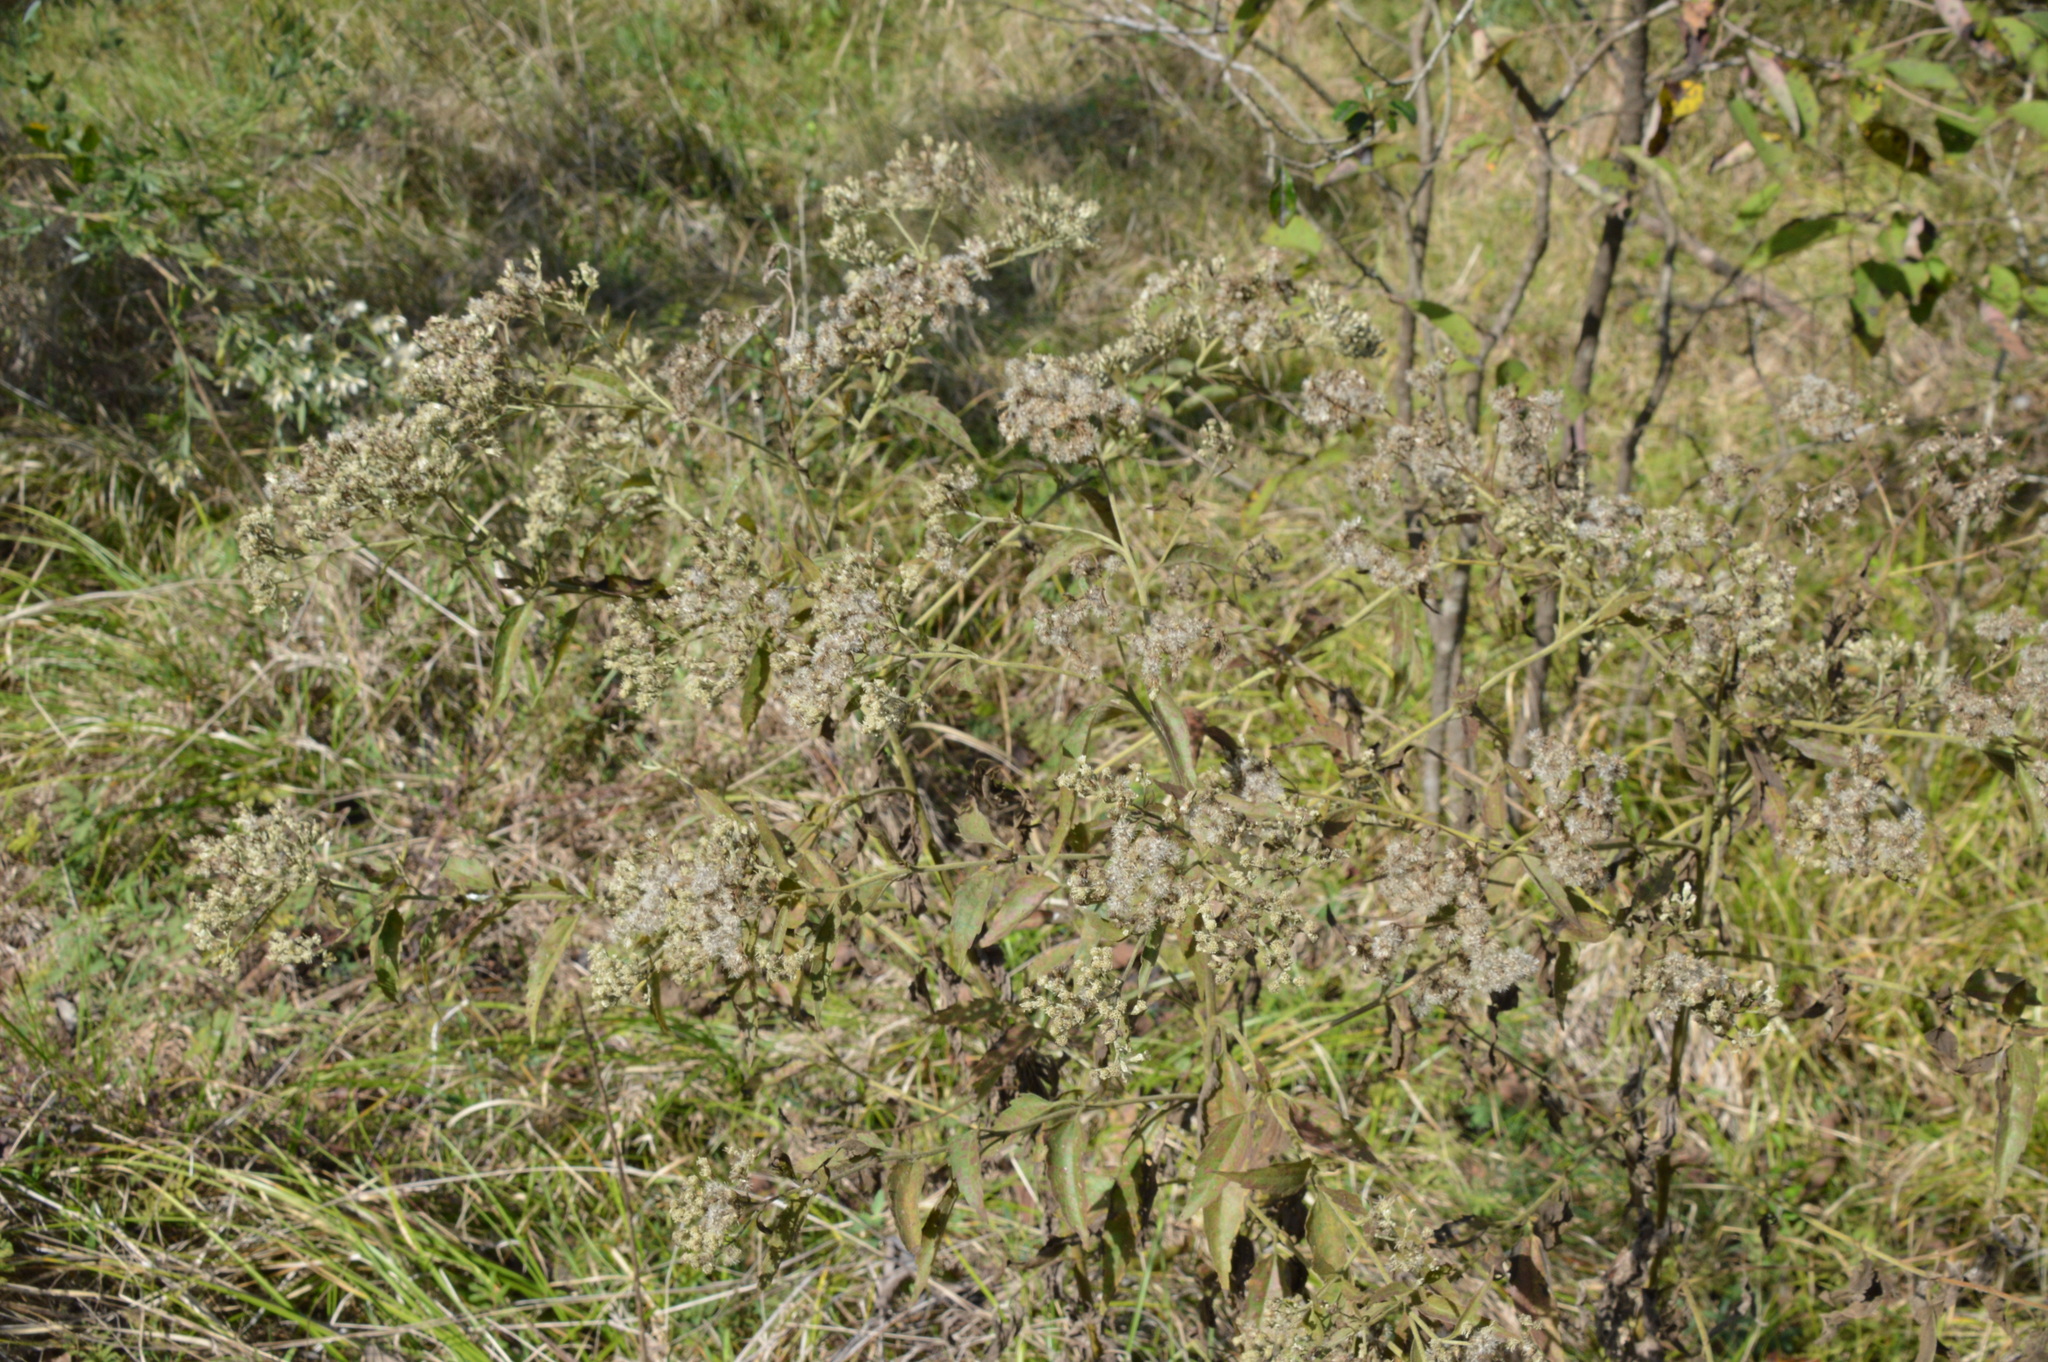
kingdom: Plantae
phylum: Tracheophyta
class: Magnoliopsida
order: Asterales
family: Asteraceae
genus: Eupatorium
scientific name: Eupatorium serotinum
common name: Late boneset
